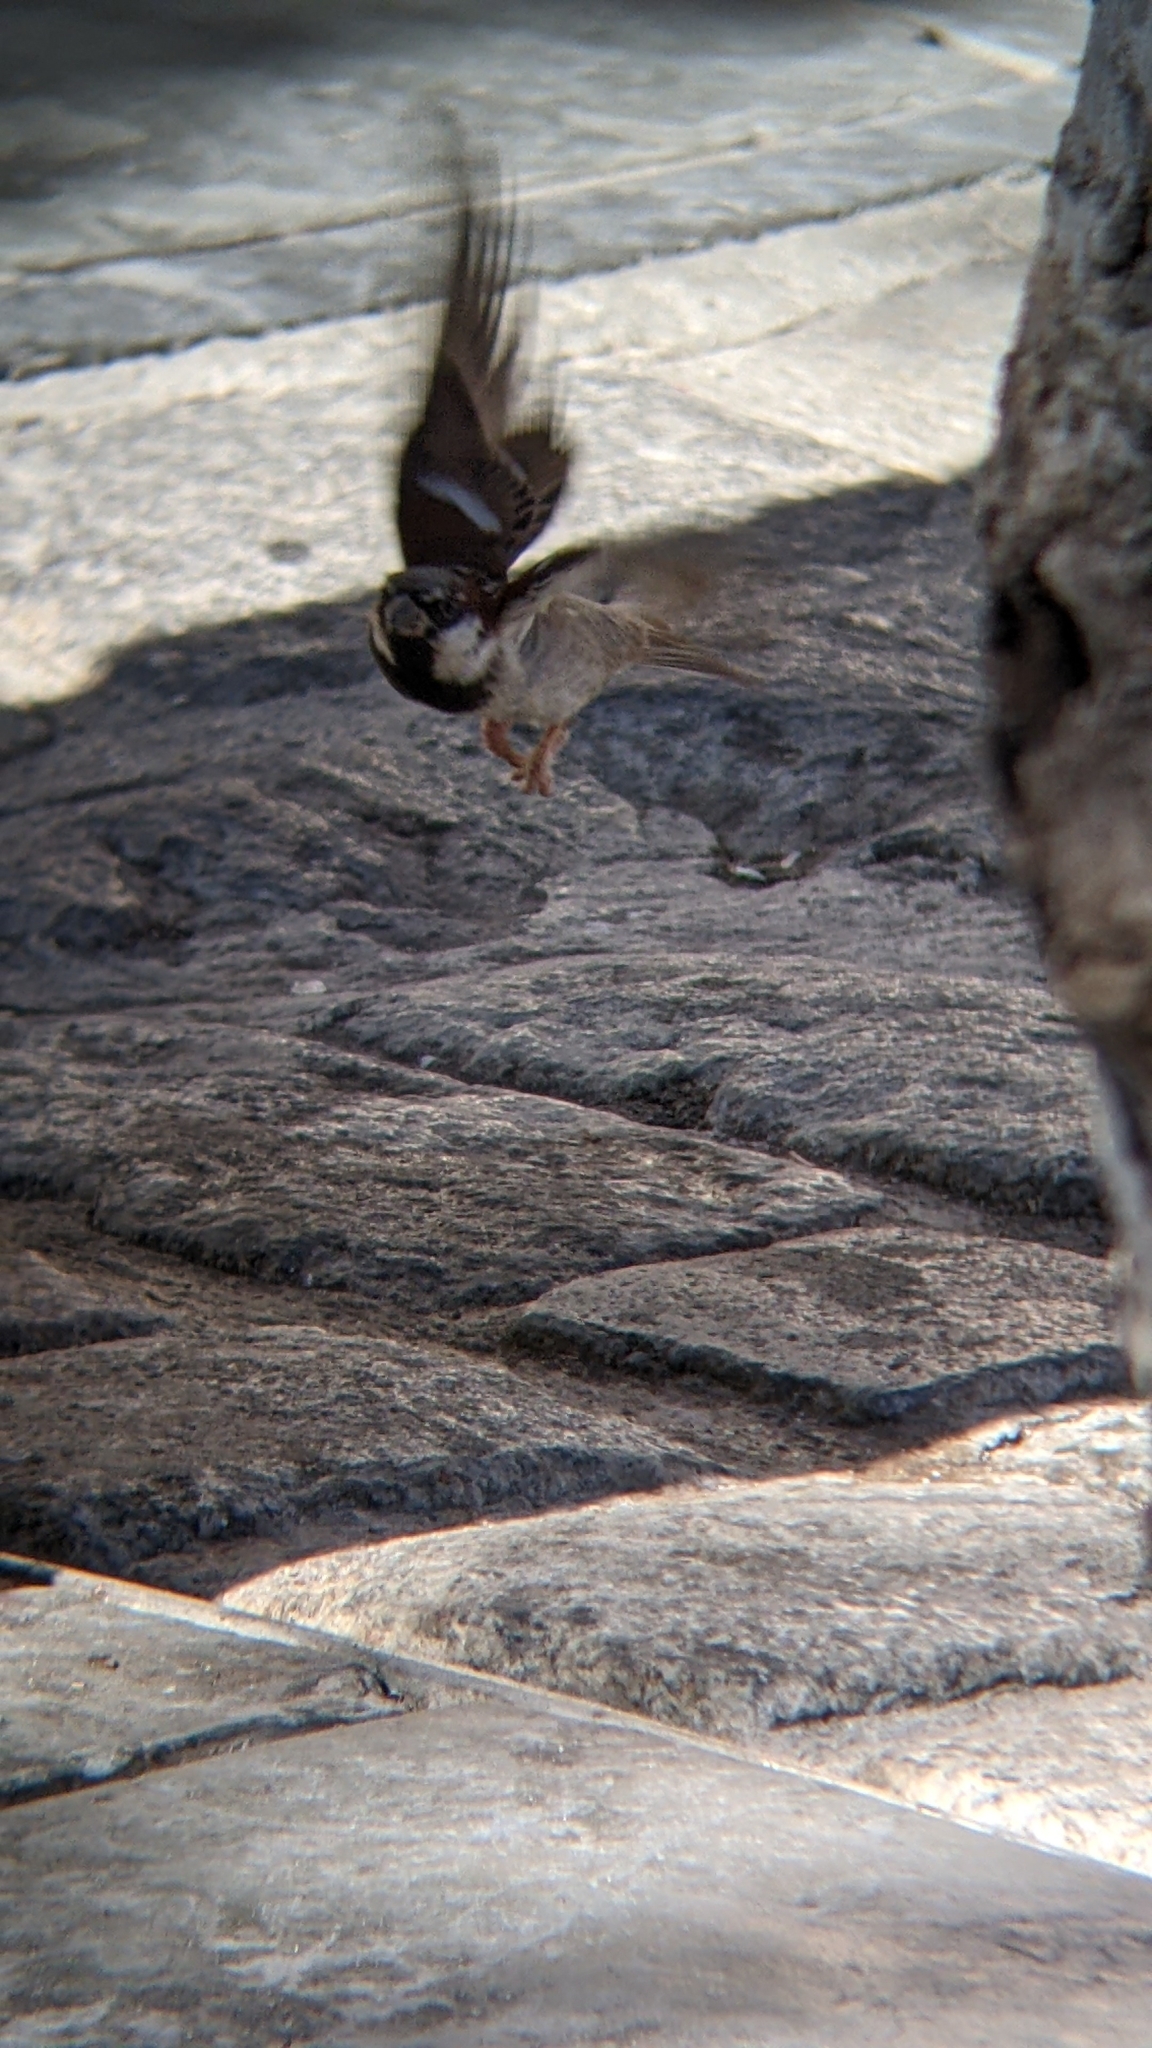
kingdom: Animalia
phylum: Chordata
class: Aves
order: Passeriformes
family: Passeridae
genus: Passer
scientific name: Passer domesticus
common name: House sparrow
